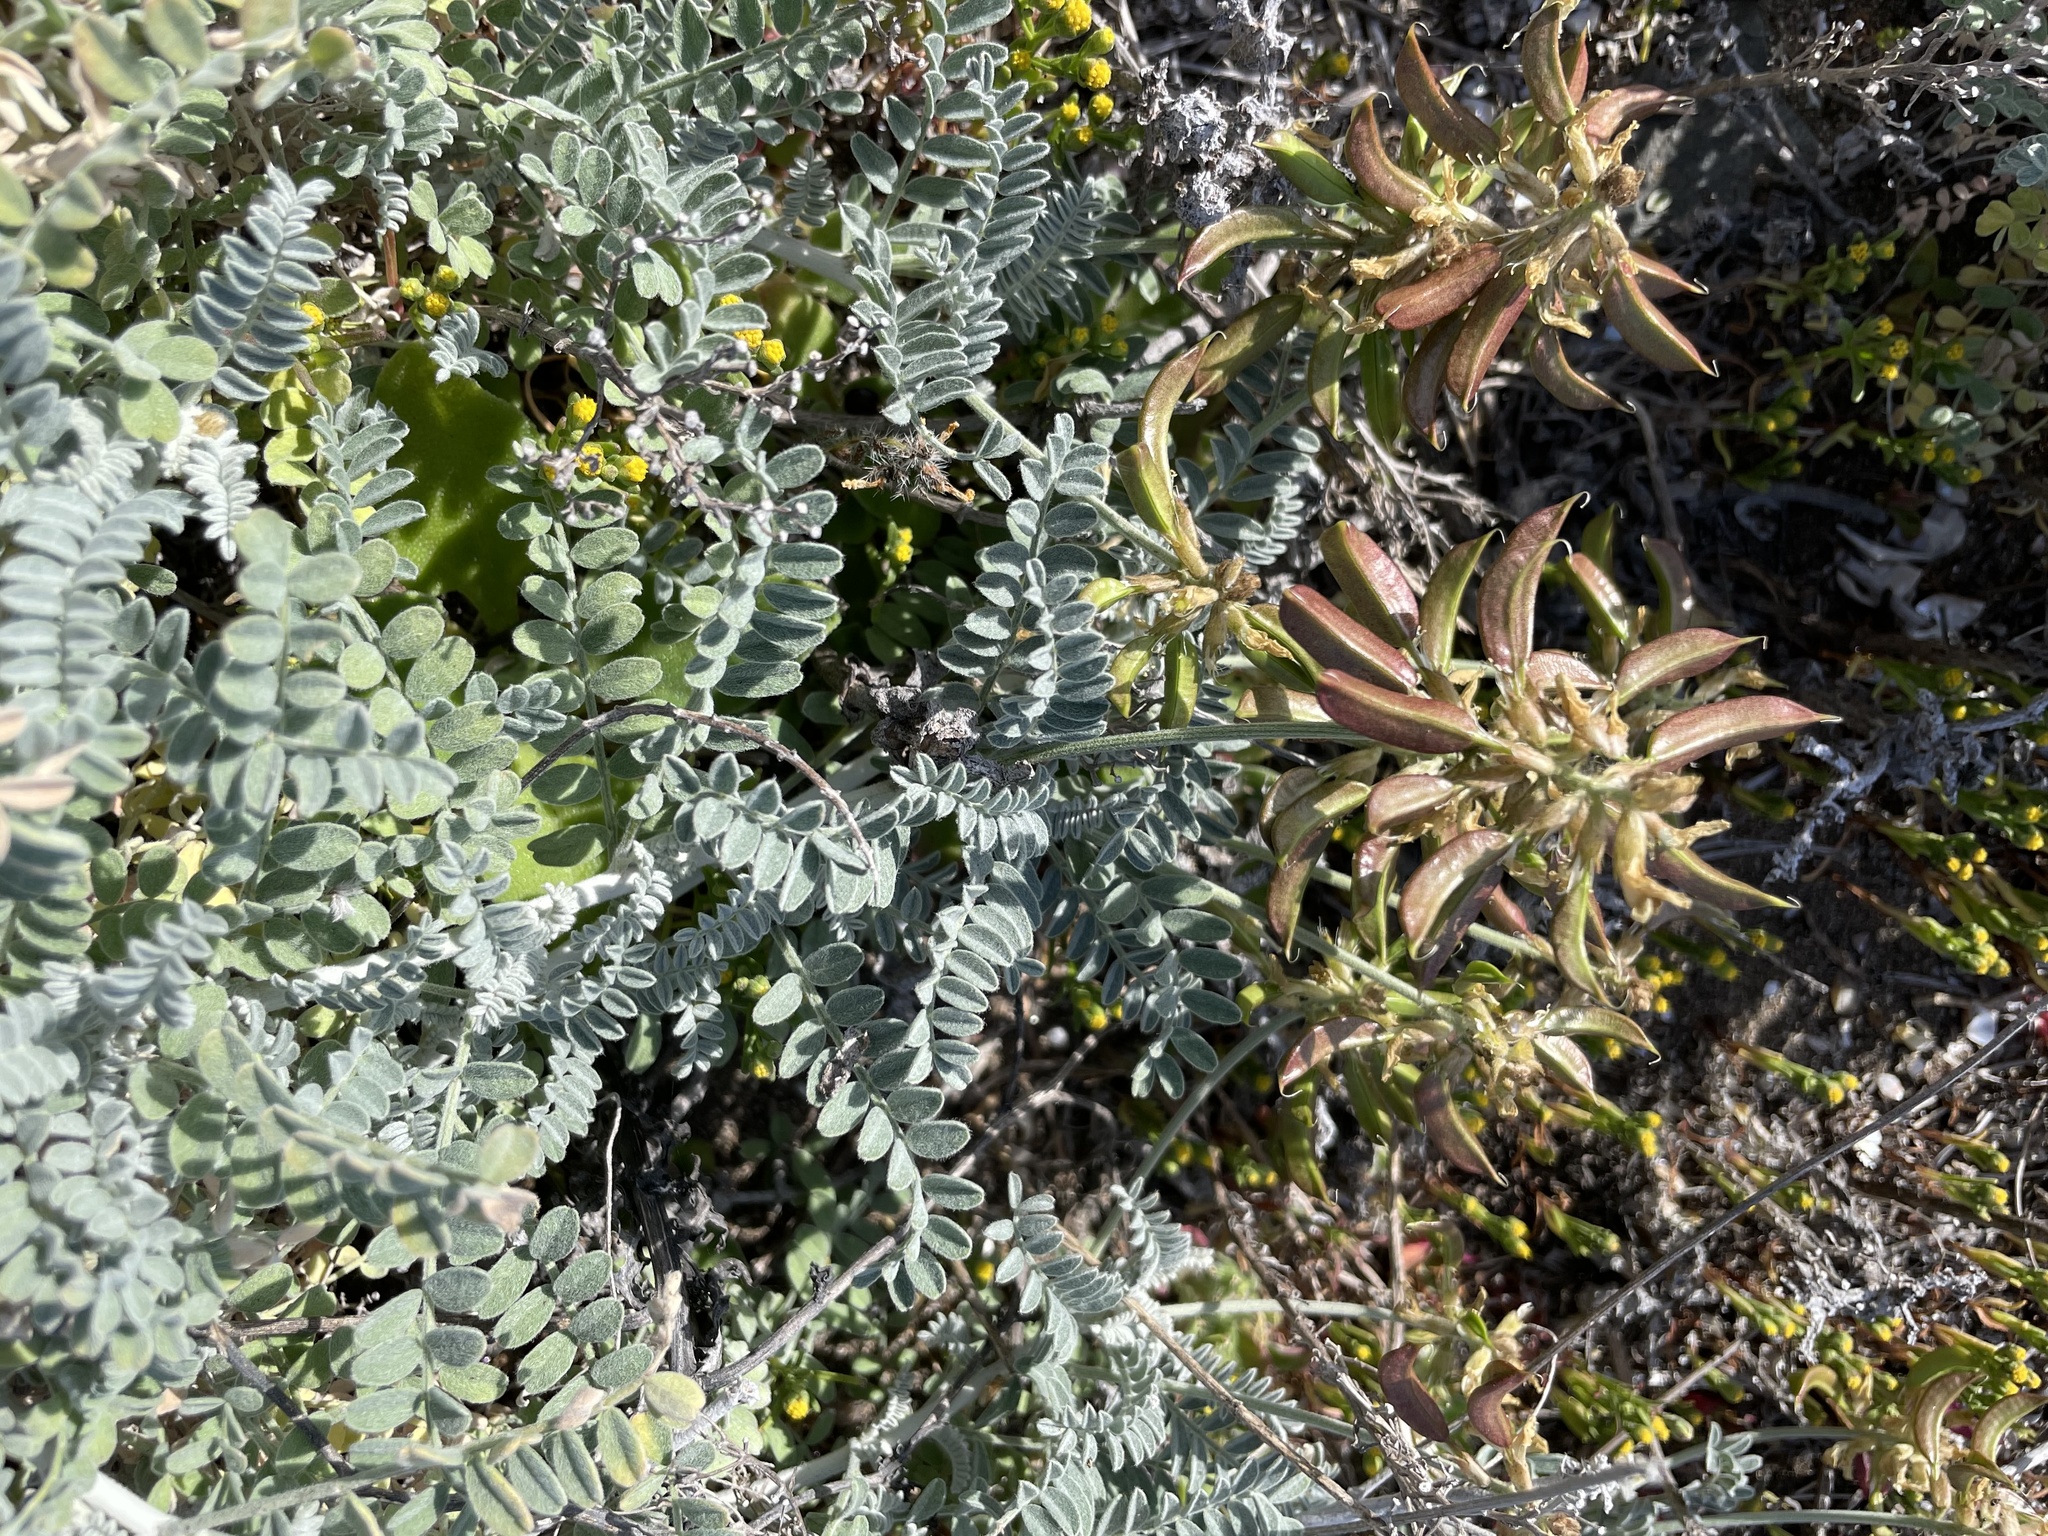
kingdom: Plantae
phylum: Tracheophyta
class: Magnoliopsida
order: Fabales
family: Fabaceae
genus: Astragalus
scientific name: Astragalus nevinii
